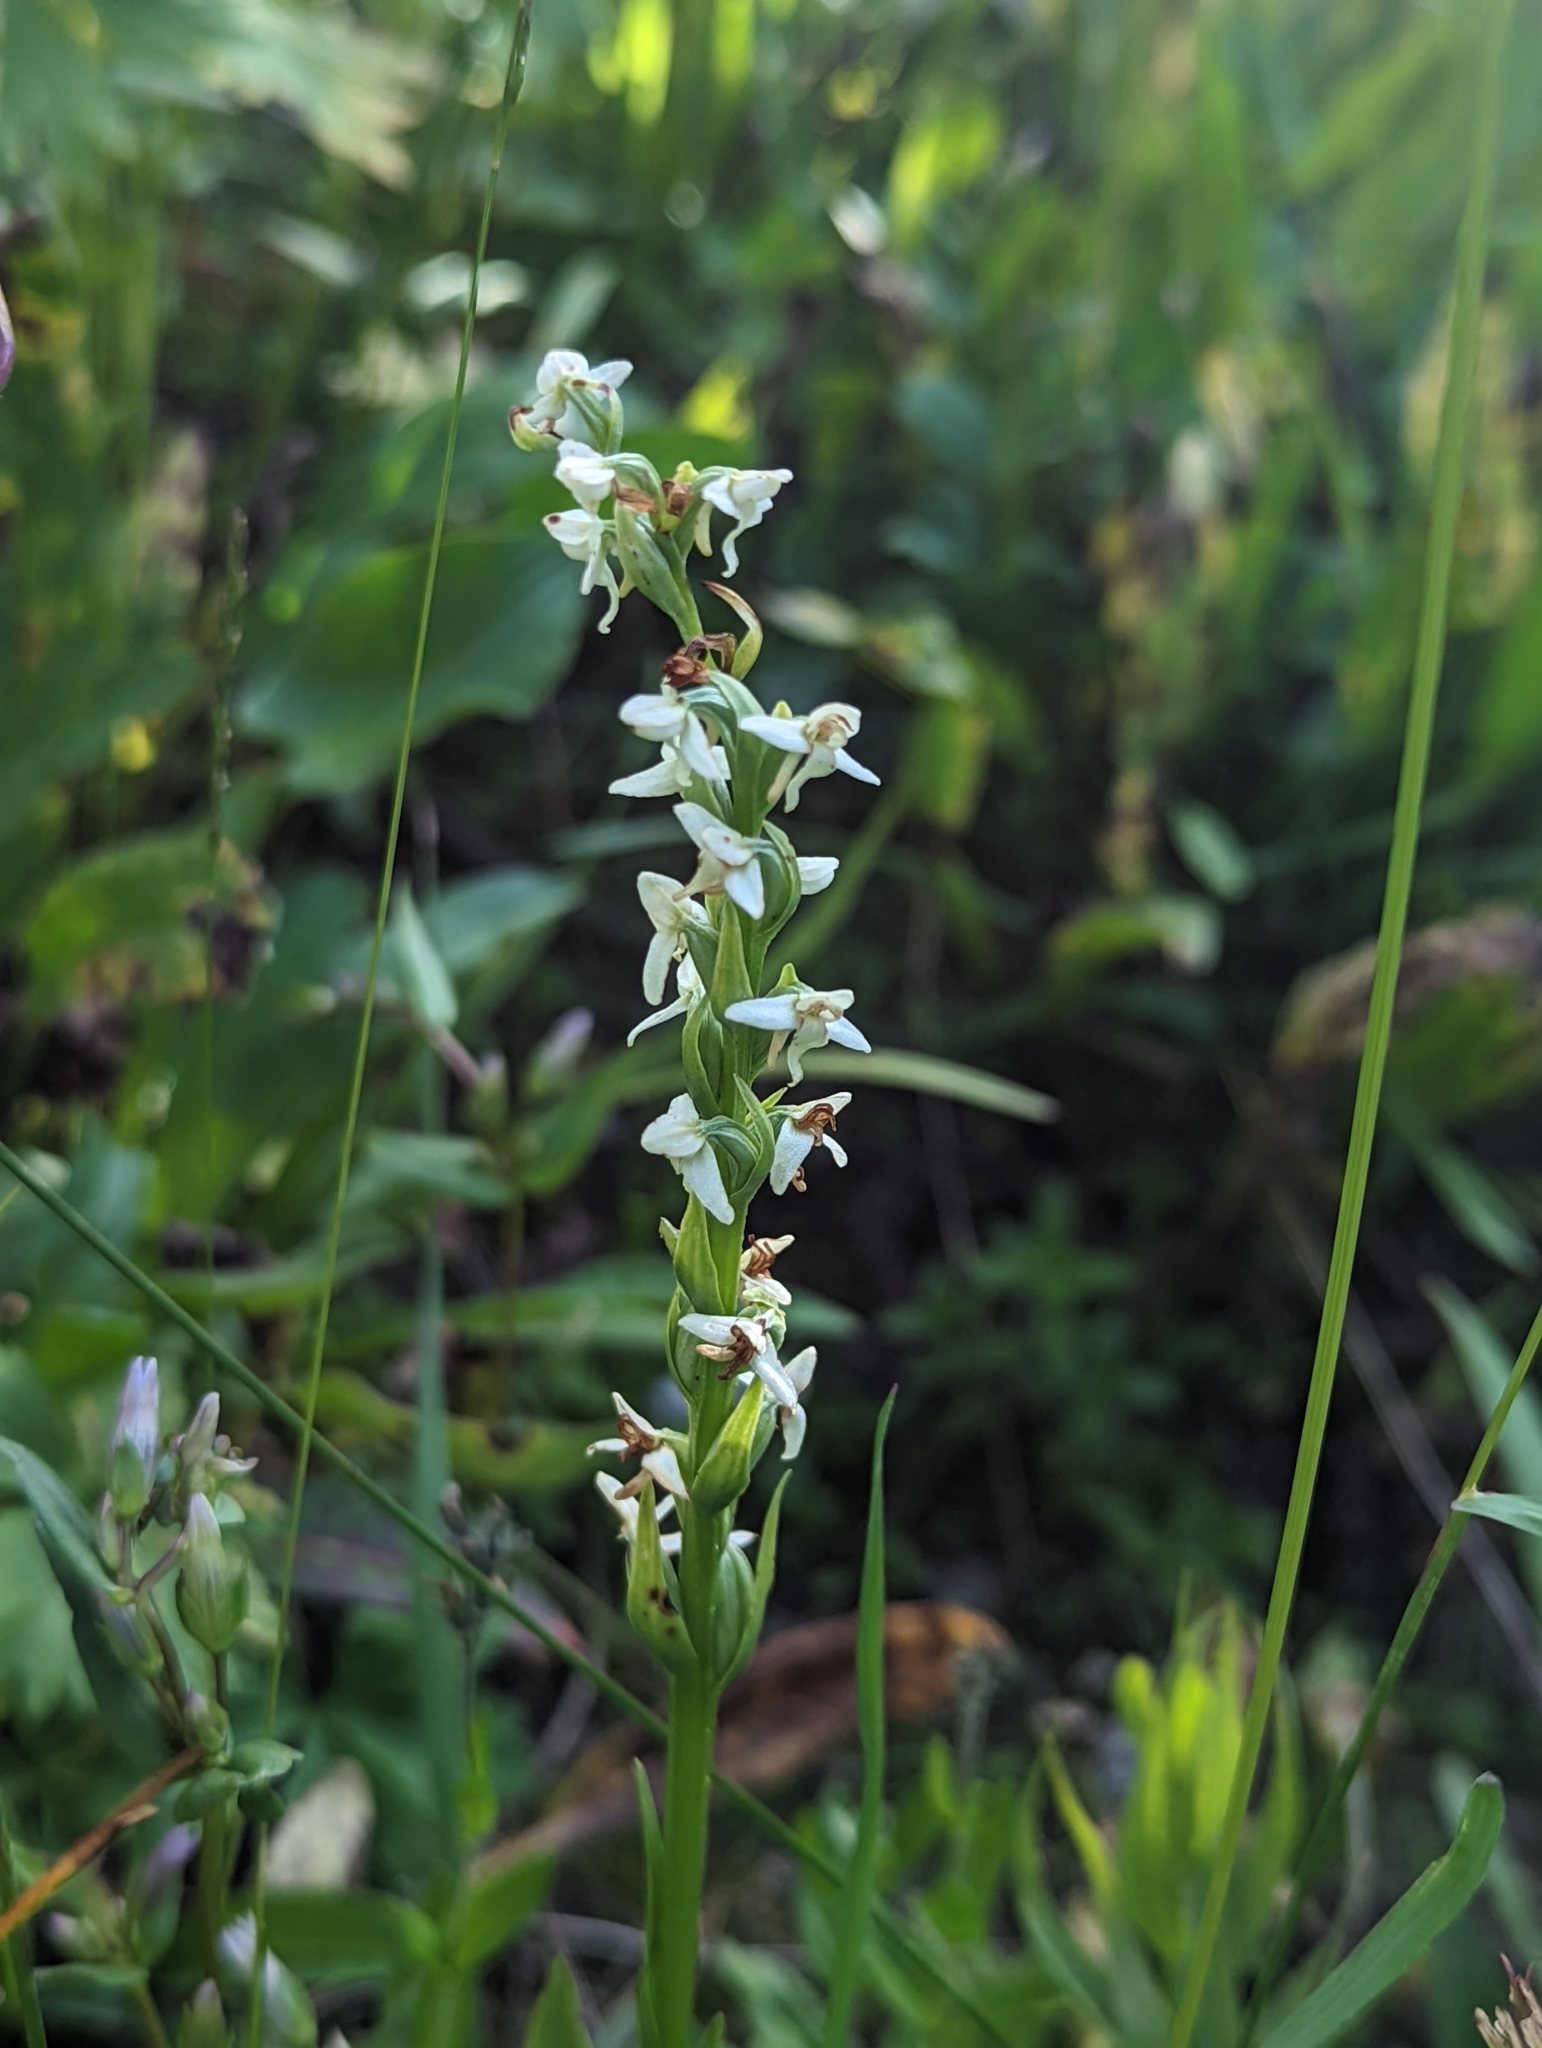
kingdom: Plantae
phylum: Tracheophyta
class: Liliopsida
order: Asparagales
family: Orchidaceae
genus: Platanthera
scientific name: Platanthera dilatata
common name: Bog candles
